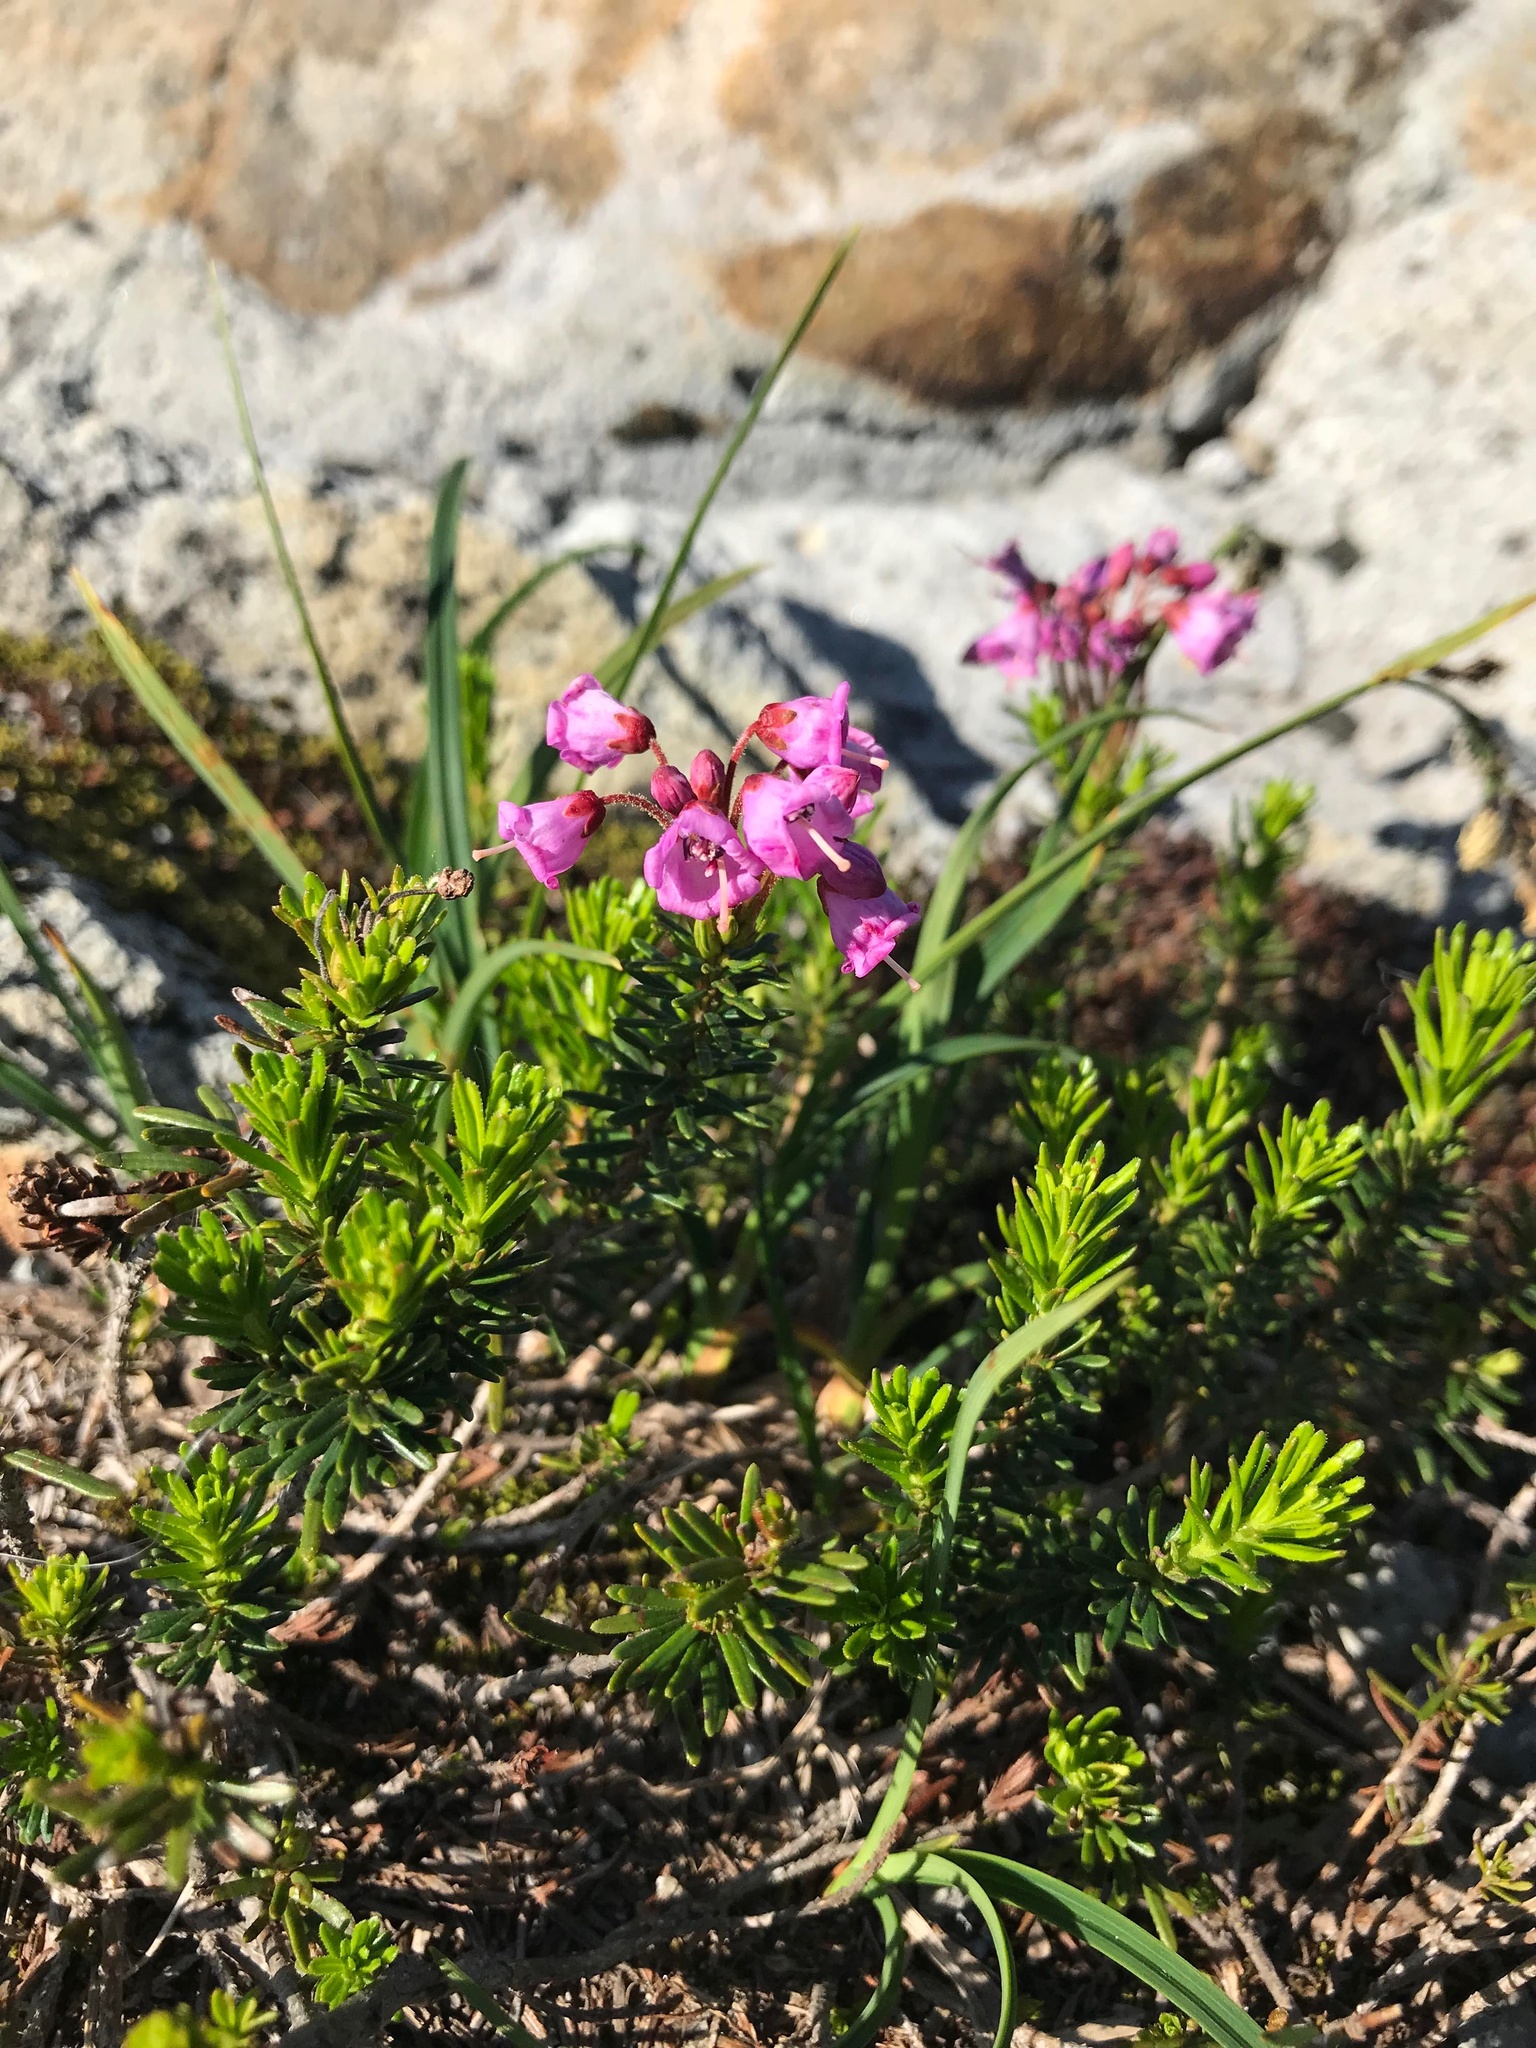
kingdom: Plantae
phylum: Tracheophyta
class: Magnoliopsida
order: Ericales
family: Ericaceae
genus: Phyllodoce
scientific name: Phyllodoce empetriformis
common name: Pink mountain heather
